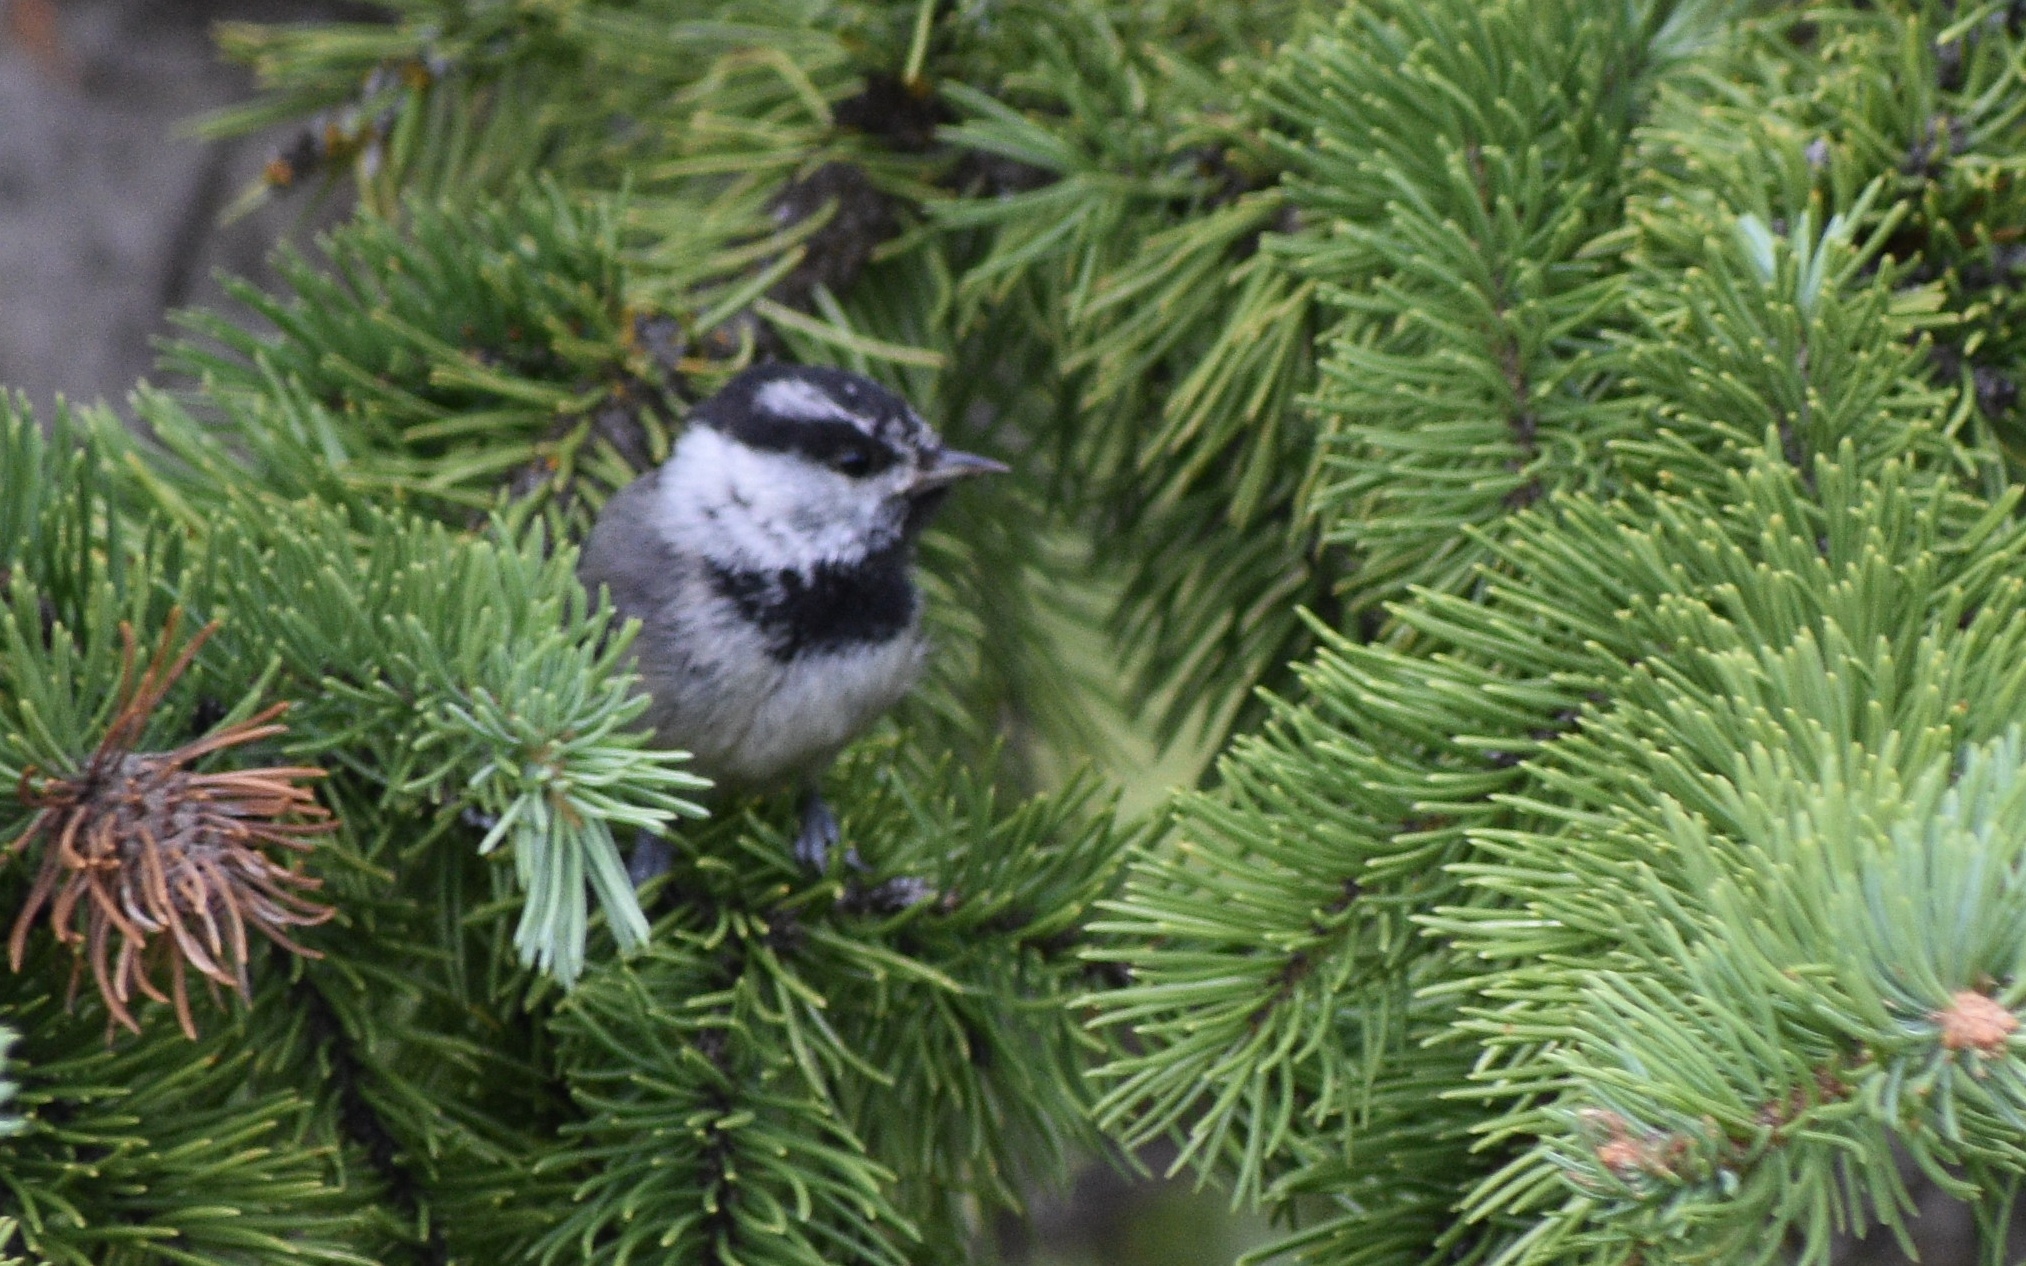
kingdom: Animalia
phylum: Chordata
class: Aves
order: Passeriformes
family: Paridae
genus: Poecile
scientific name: Poecile gambeli
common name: Mountain chickadee
